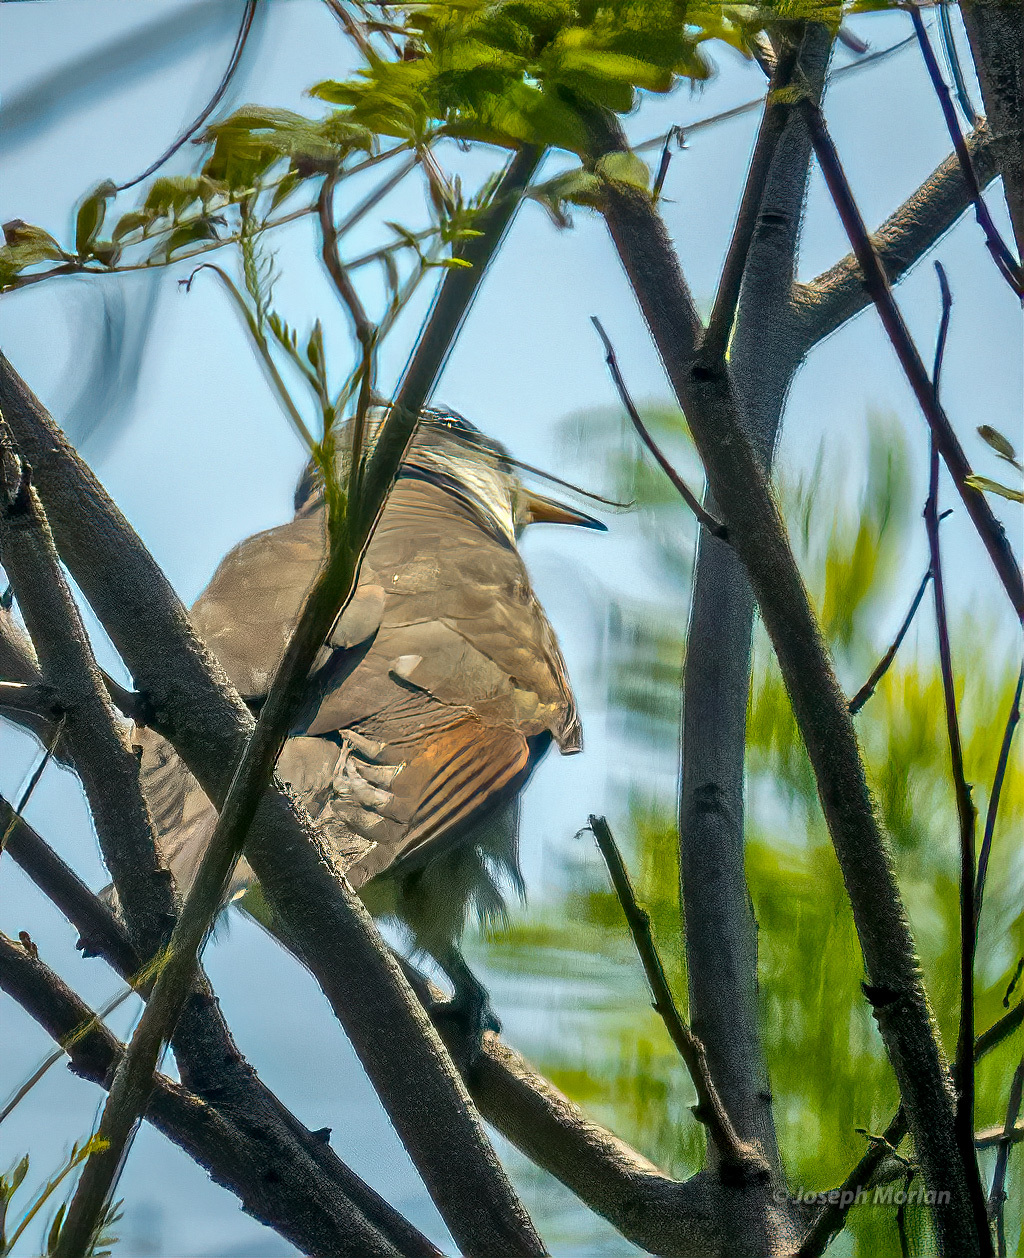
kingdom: Animalia
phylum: Chordata
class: Aves
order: Cuculiformes
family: Cuculidae
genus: Coccyzus
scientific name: Coccyzus americanus
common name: Yellow-billed cuckoo
